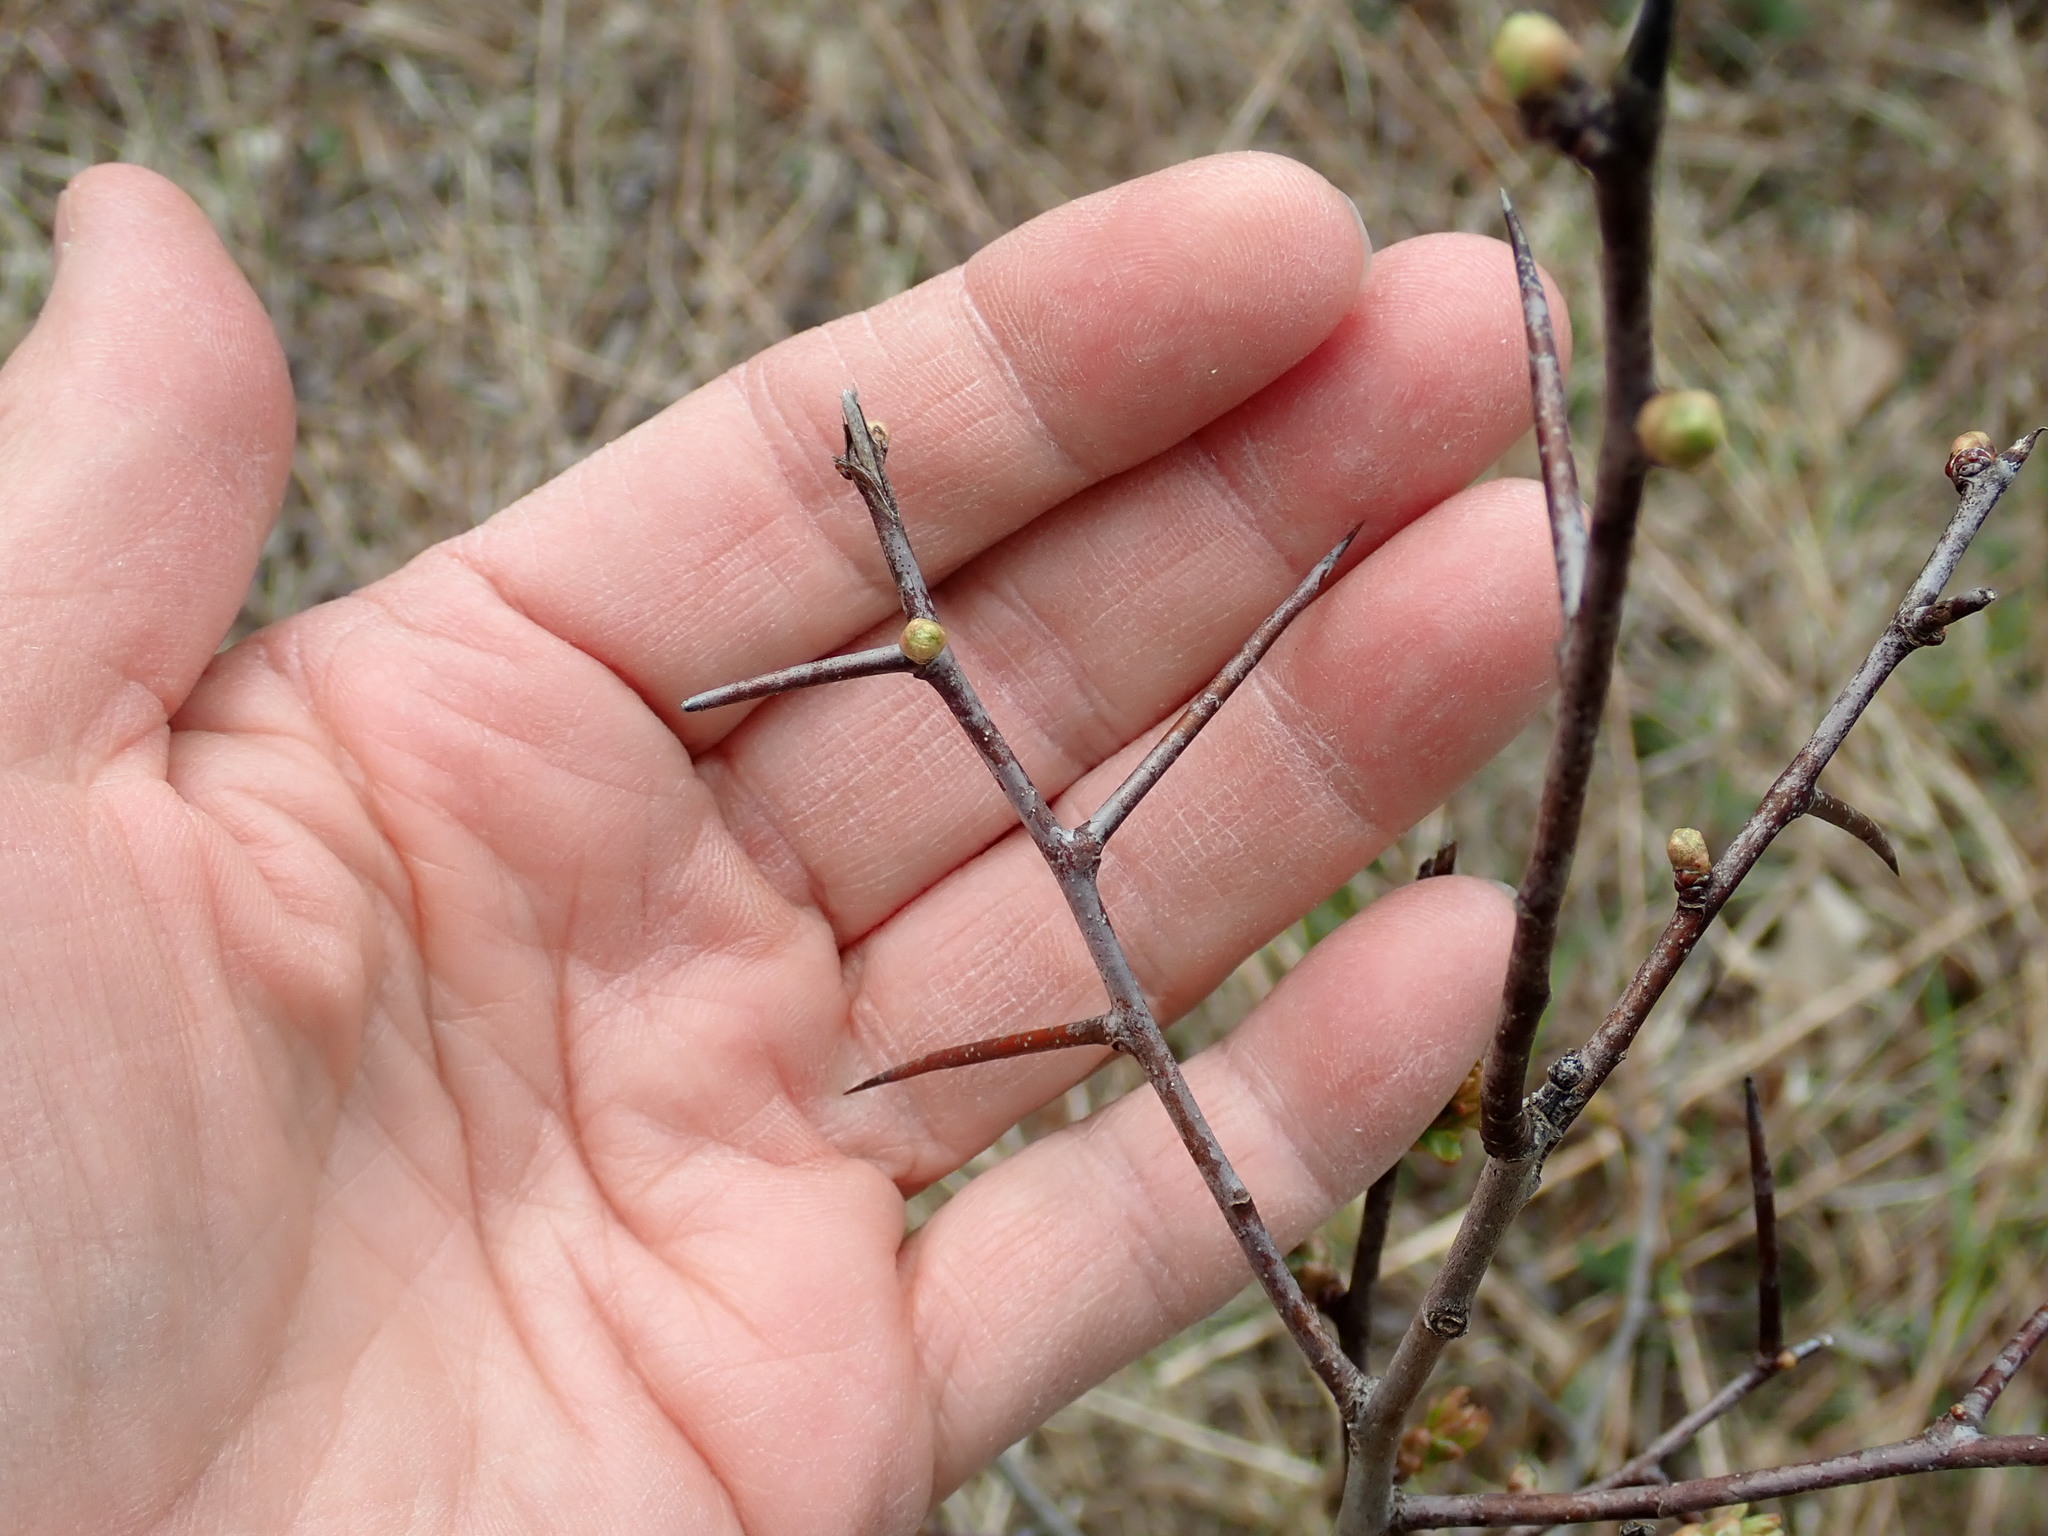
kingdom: Plantae
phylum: Tracheophyta
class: Magnoliopsida
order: Rosales
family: Rosaceae
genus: Crataegus
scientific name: Crataegus
